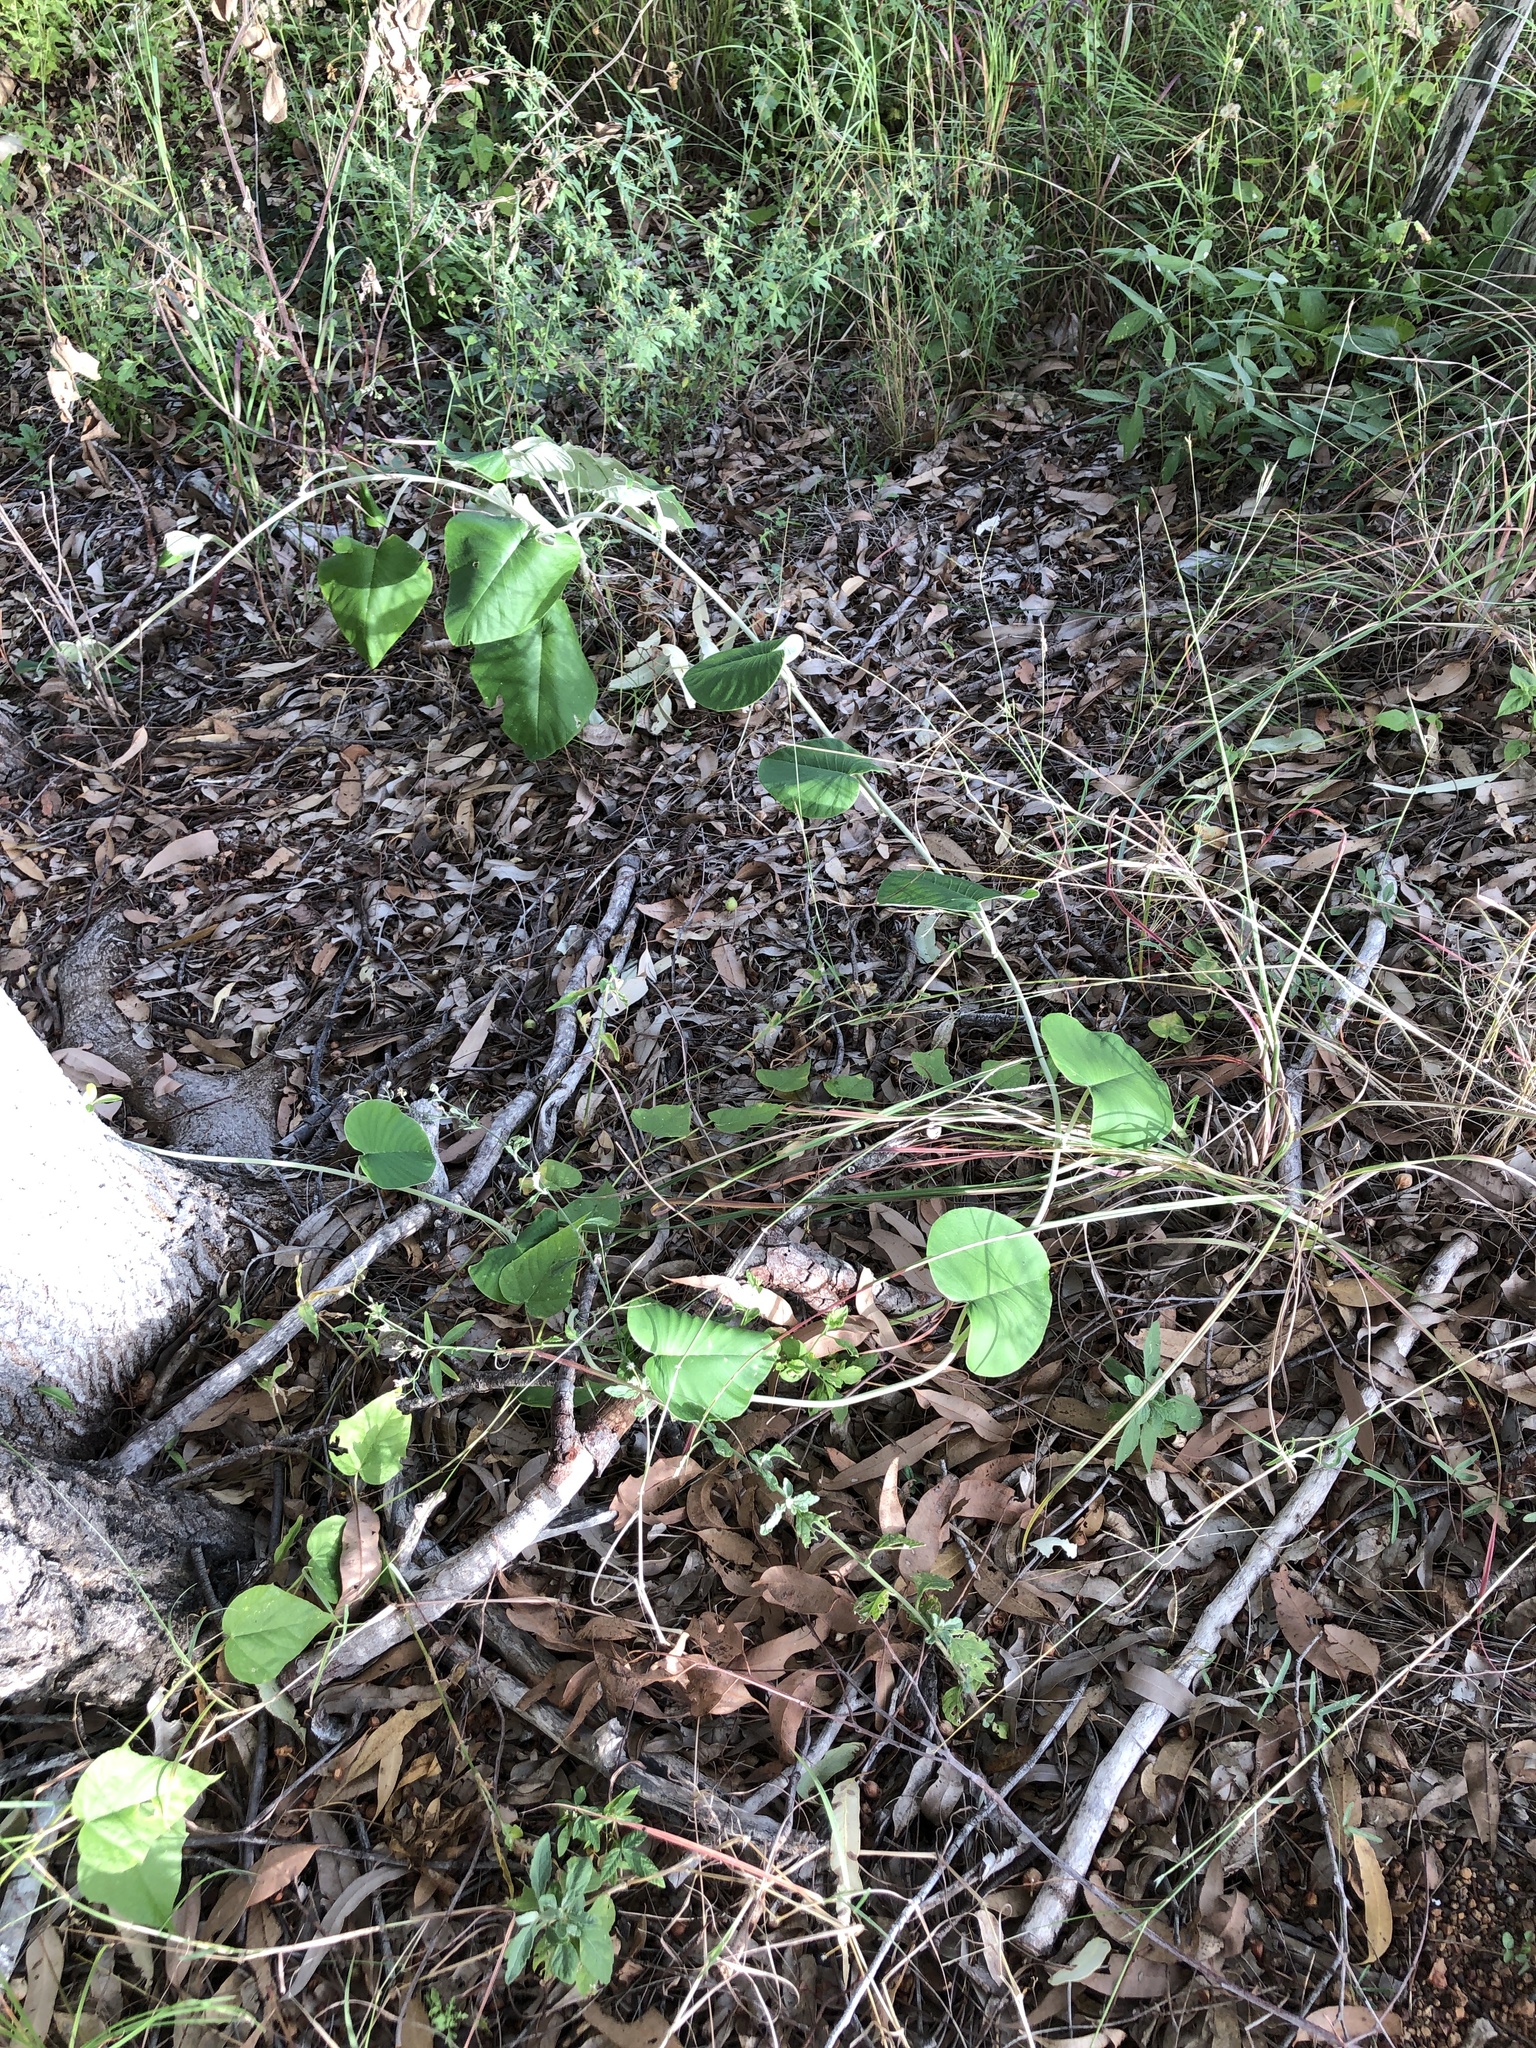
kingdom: Plantae
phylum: Tracheophyta
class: Magnoliopsida
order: Solanales
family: Convolvulaceae
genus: Argyreia
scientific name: Argyreia nervosa
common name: Elephant creeper
